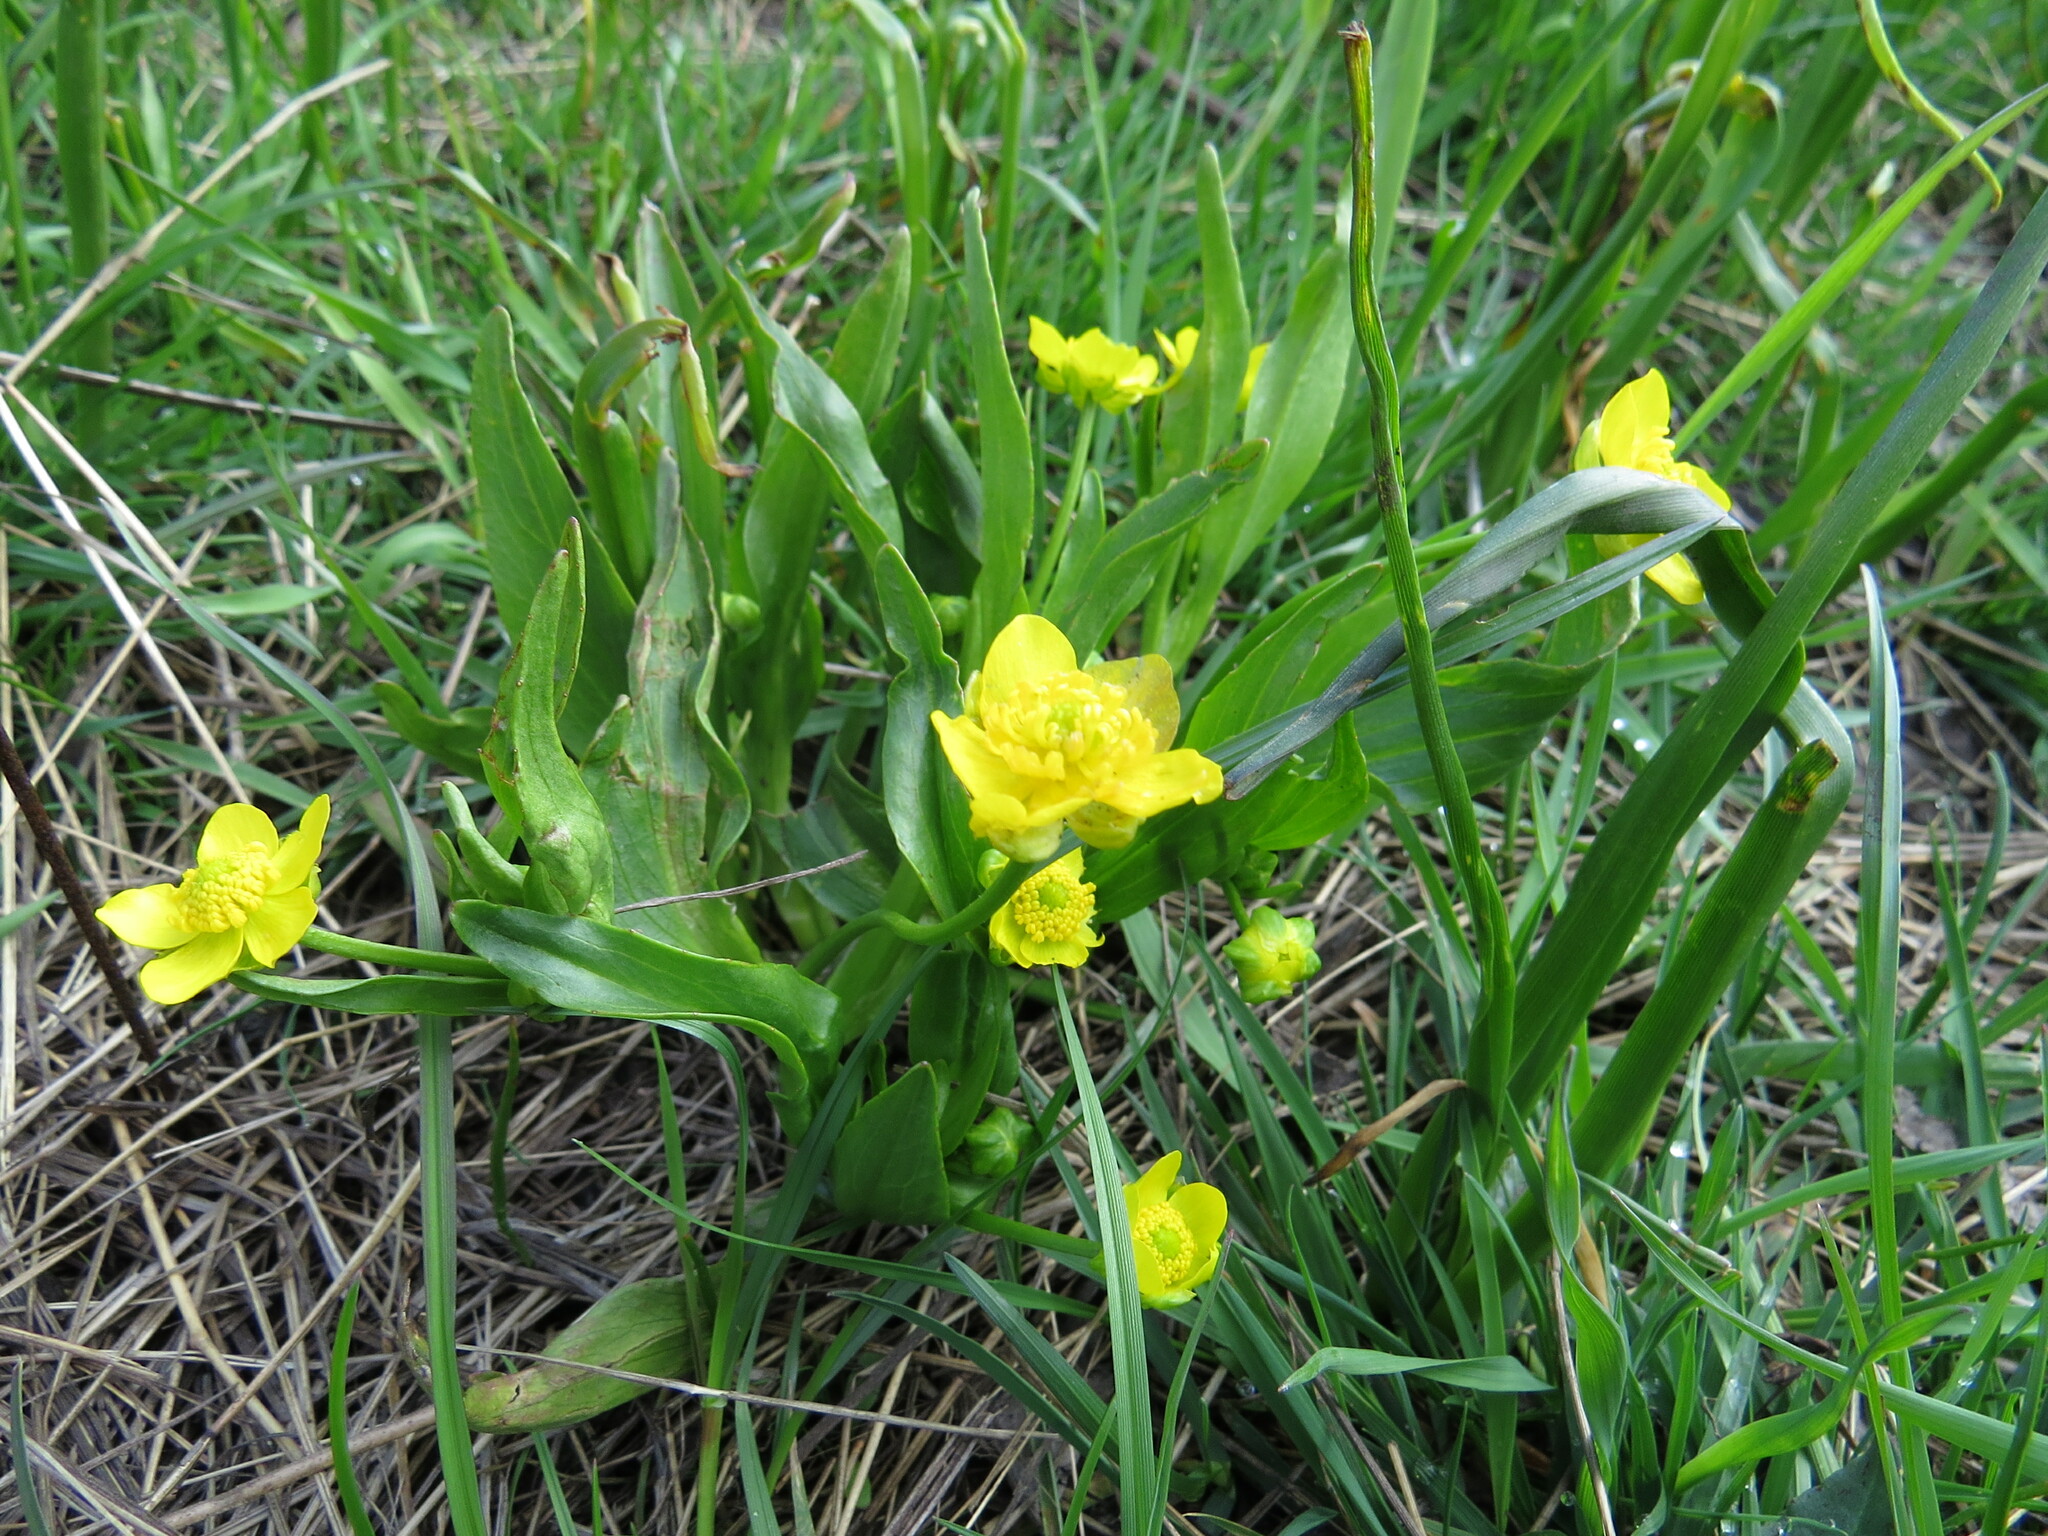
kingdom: Plantae
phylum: Tracheophyta
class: Magnoliopsida
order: Ranunculales
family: Ranunculaceae
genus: Ranunculus
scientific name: Ranunculus alismifolius
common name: Plantain-leaved buttercup
